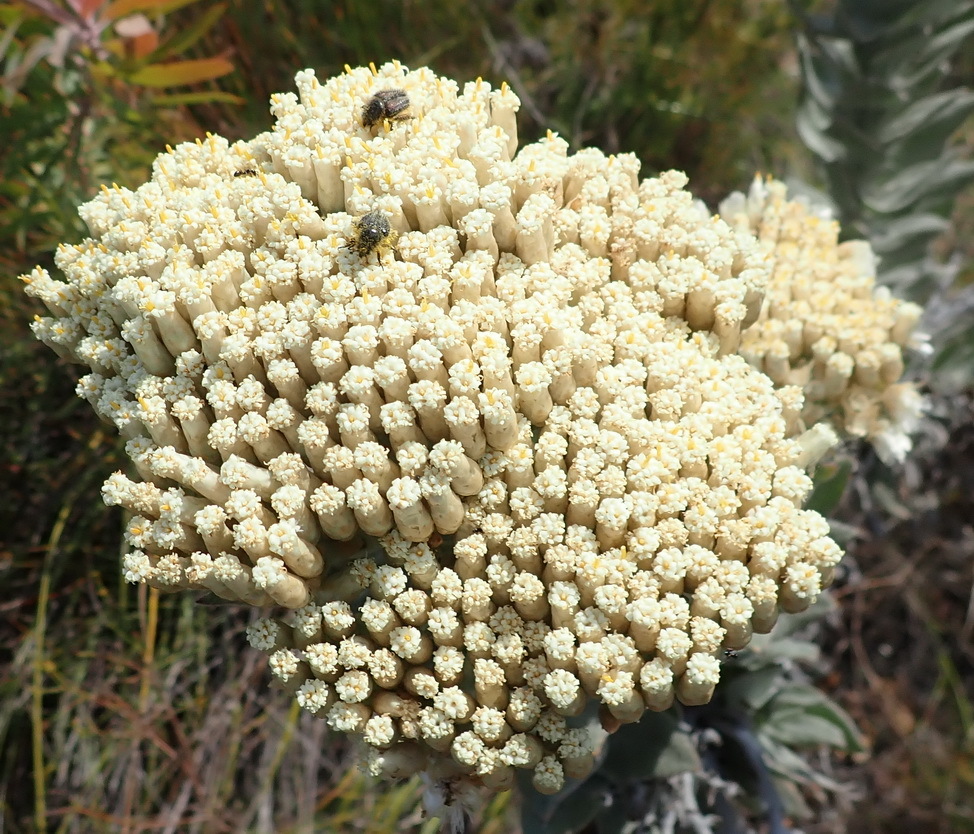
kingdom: Plantae
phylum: Tracheophyta
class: Magnoliopsida
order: Asterales
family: Asteraceae
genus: Syncarpha
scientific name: Syncarpha milleflora
